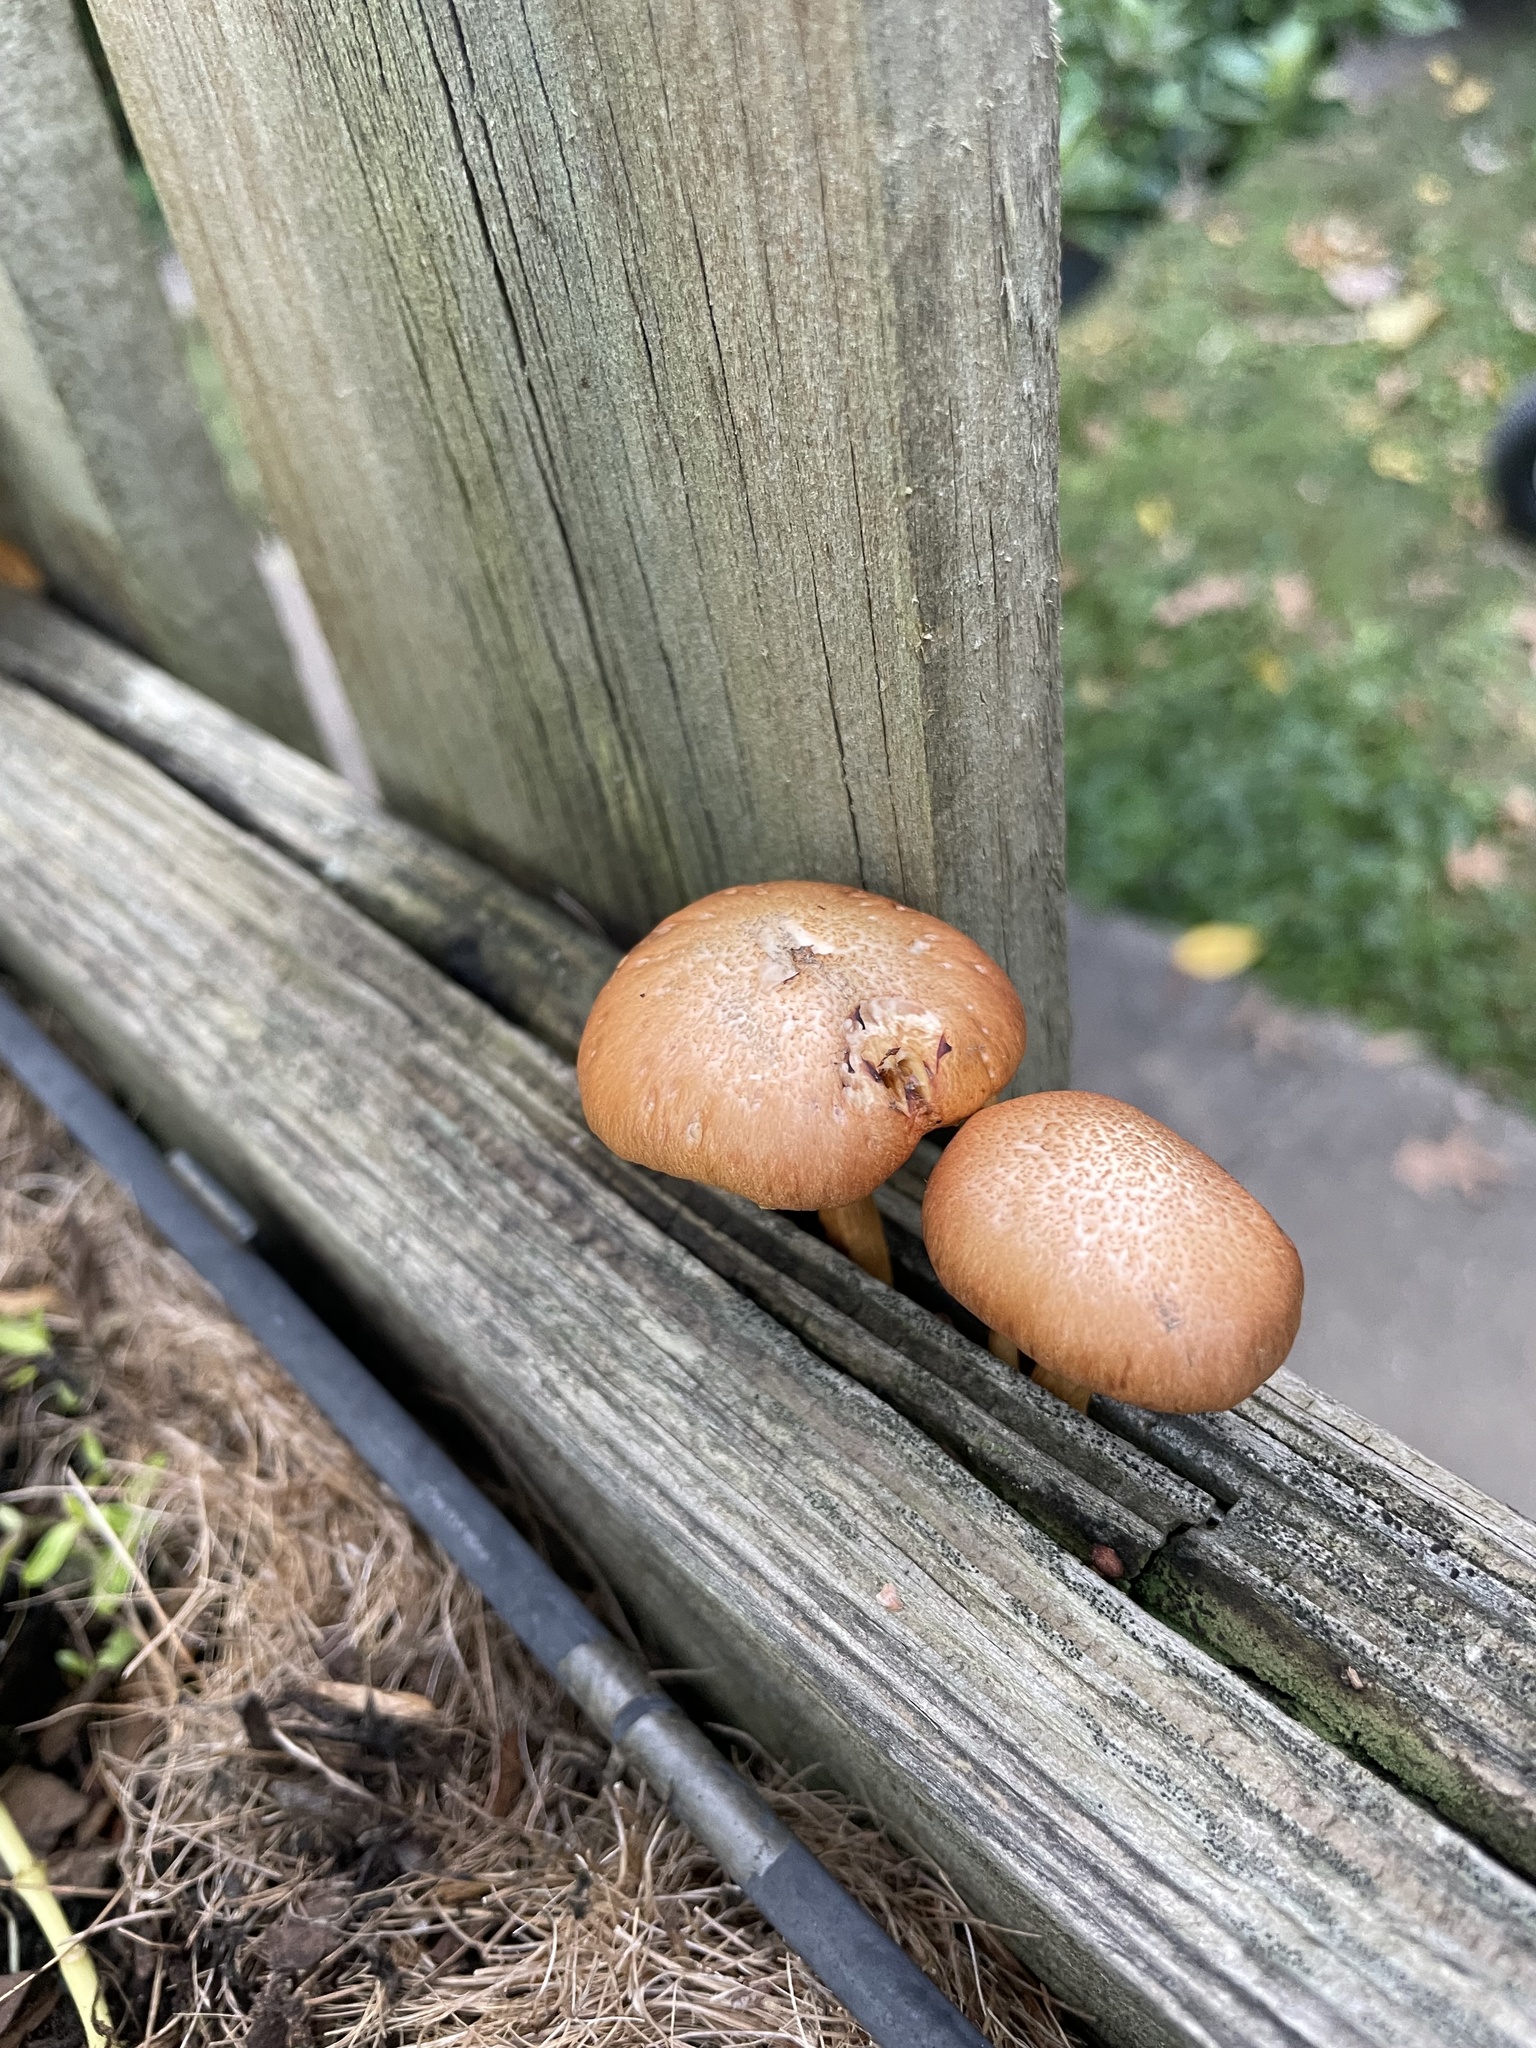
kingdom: Fungi
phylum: Basidiomycota
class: Agaricomycetes
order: Agaricales
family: Hymenogastraceae
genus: Gymnopilus
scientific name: Gymnopilus luteofolius
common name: Yellow-gilled gymnopilus
